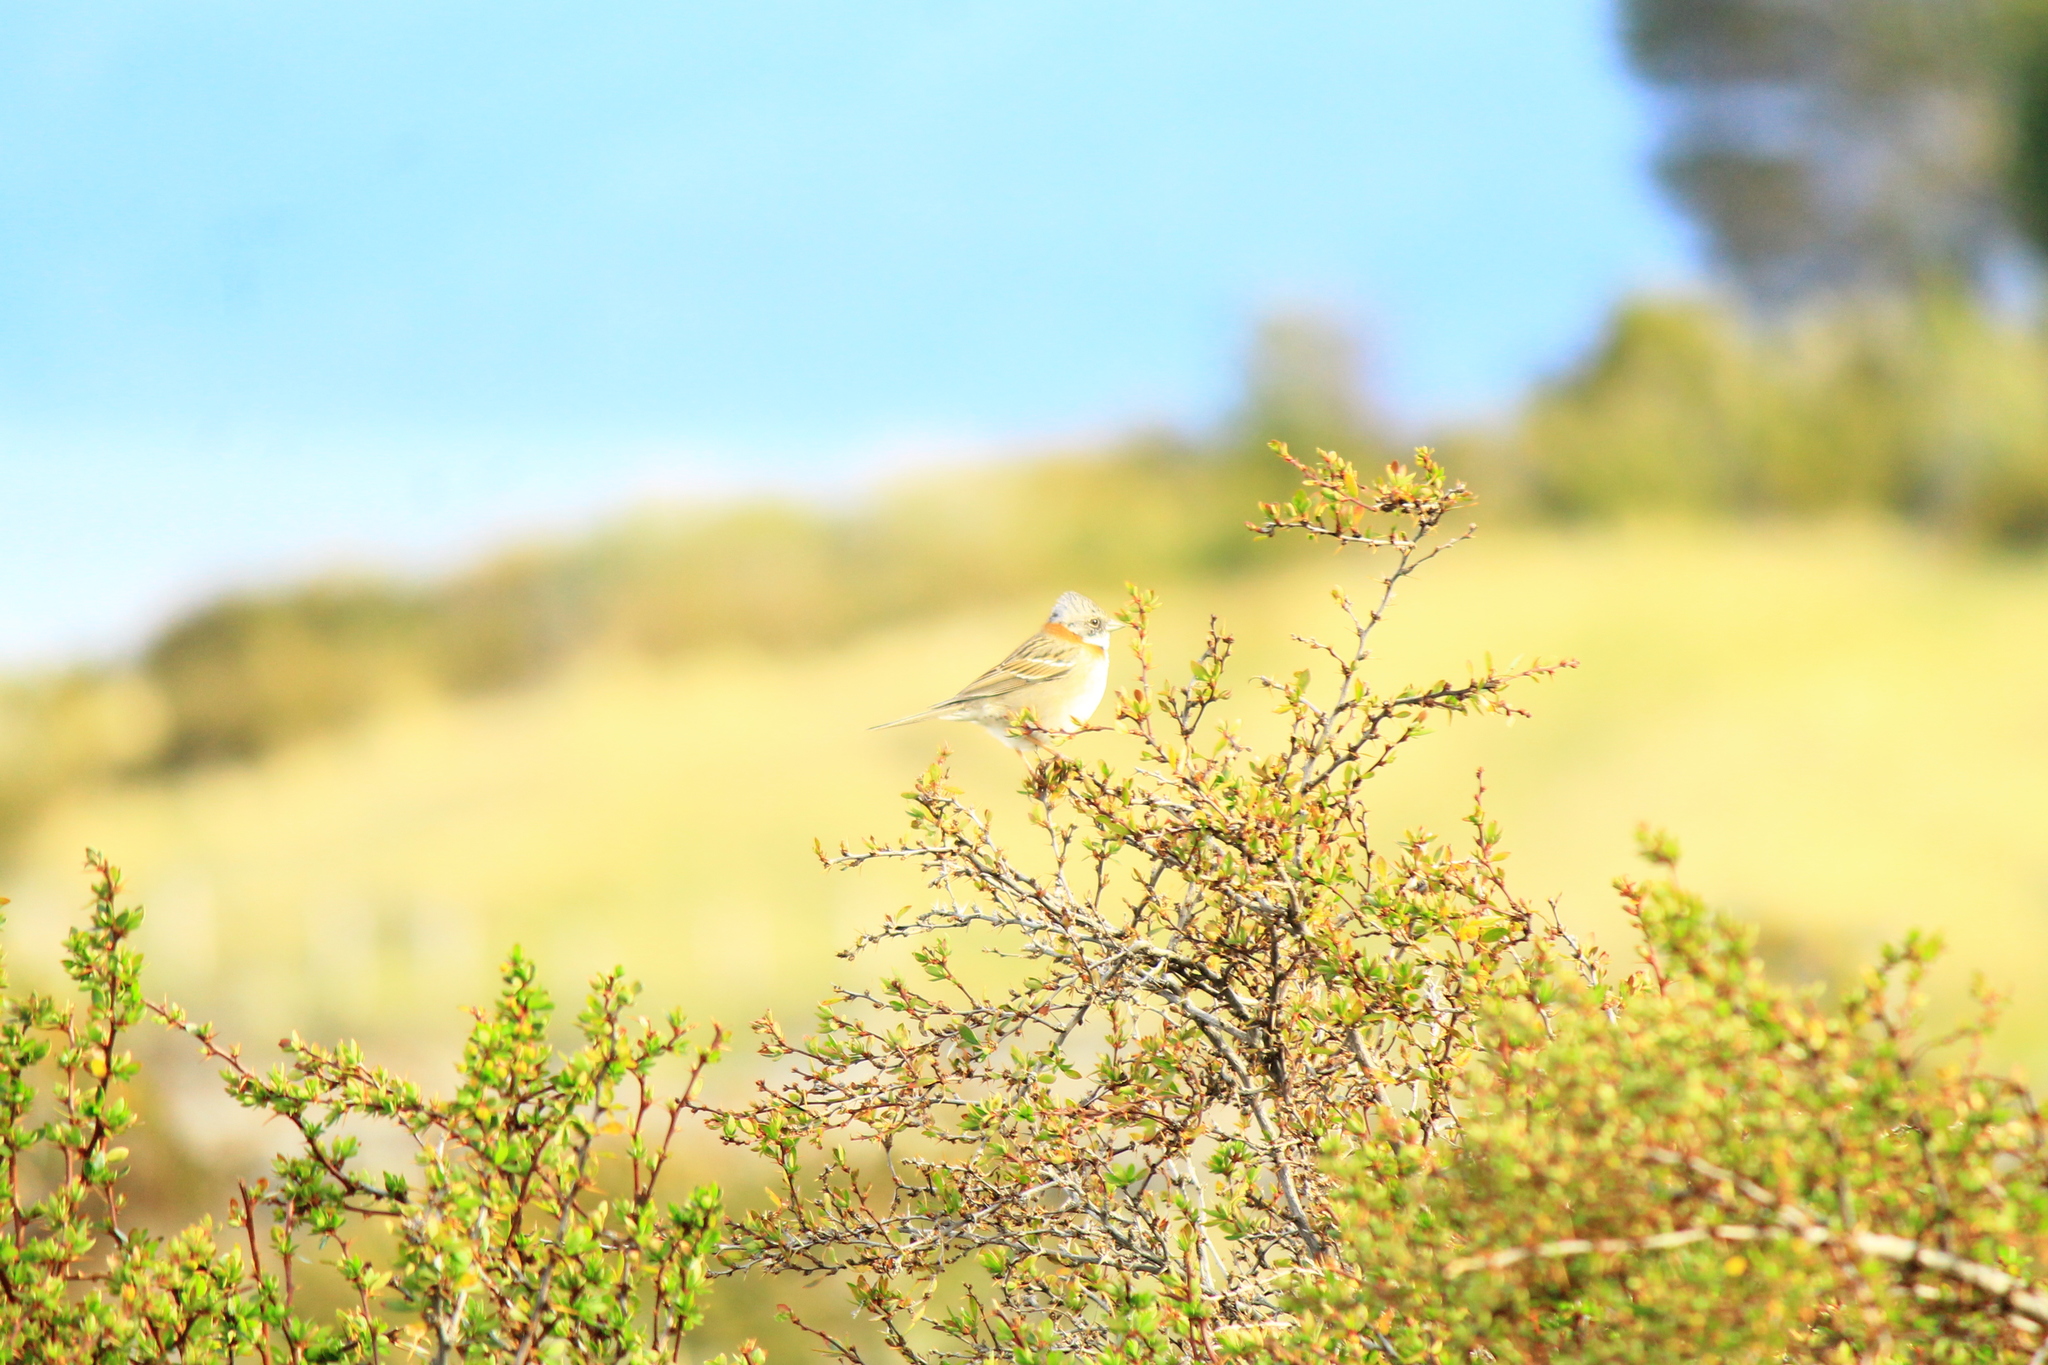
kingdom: Animalia
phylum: Chordata
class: Aves
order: Passeriformes
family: Passerellidae
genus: Zonotrichia
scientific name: Zonotrichia capensis
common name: Rufous-collared sparrow
